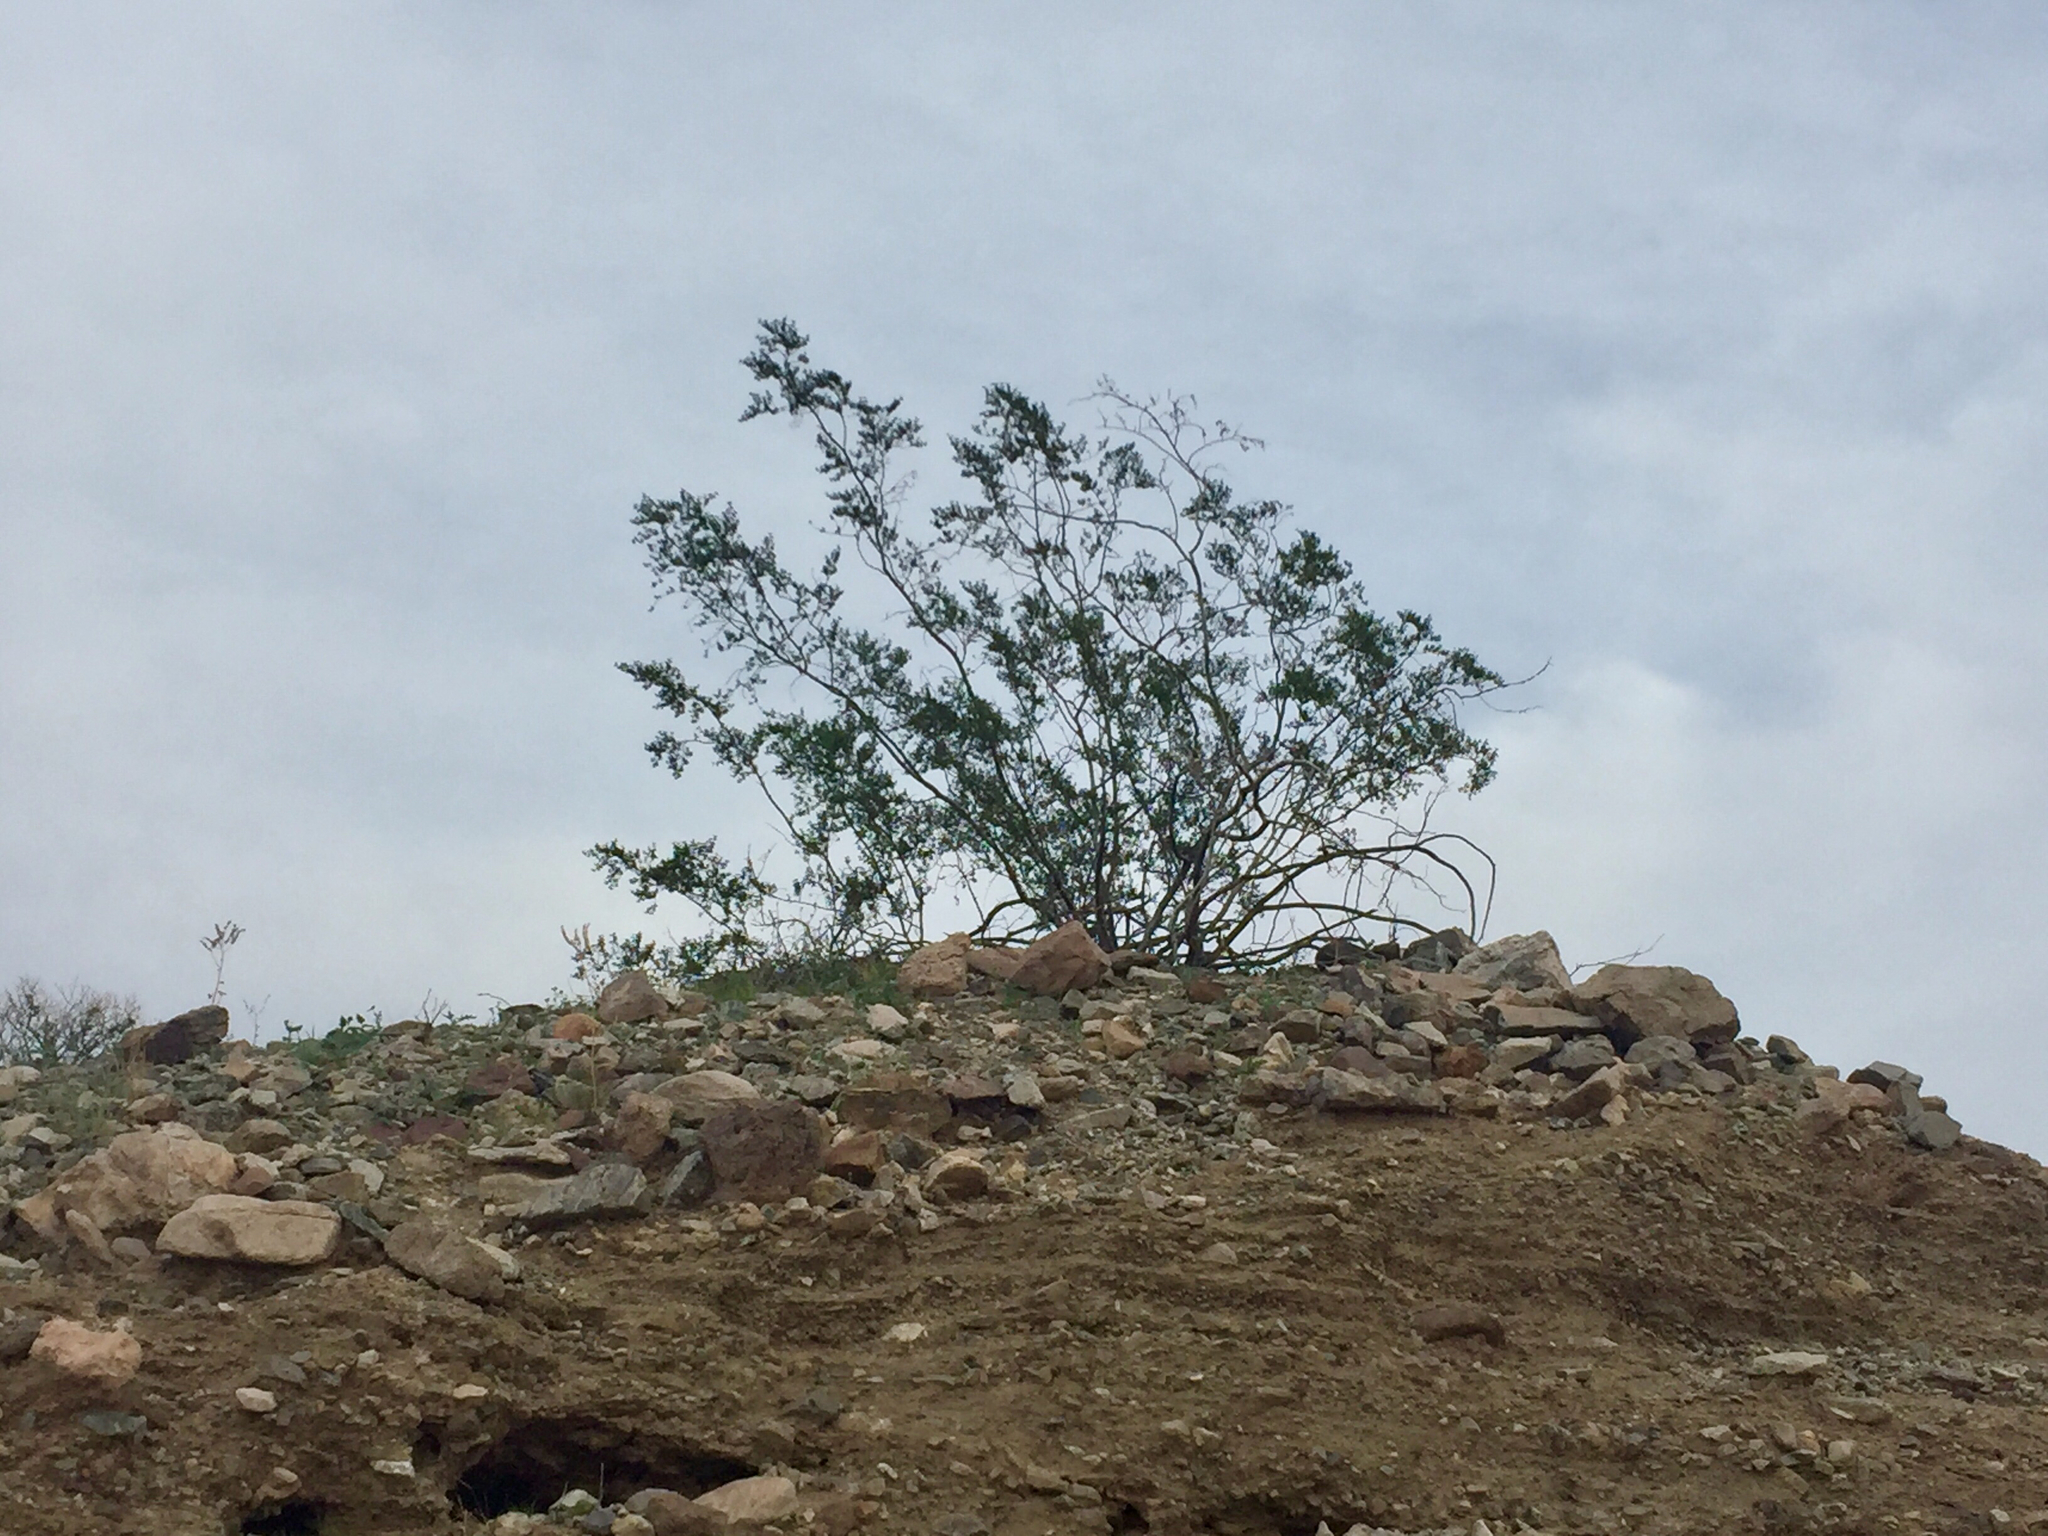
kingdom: Plantae
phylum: Tracheophyta
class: Magnoliopsida
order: Zygophyllales
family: Zygophyllaceae
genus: Larrea
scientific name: Larrea tridentata
